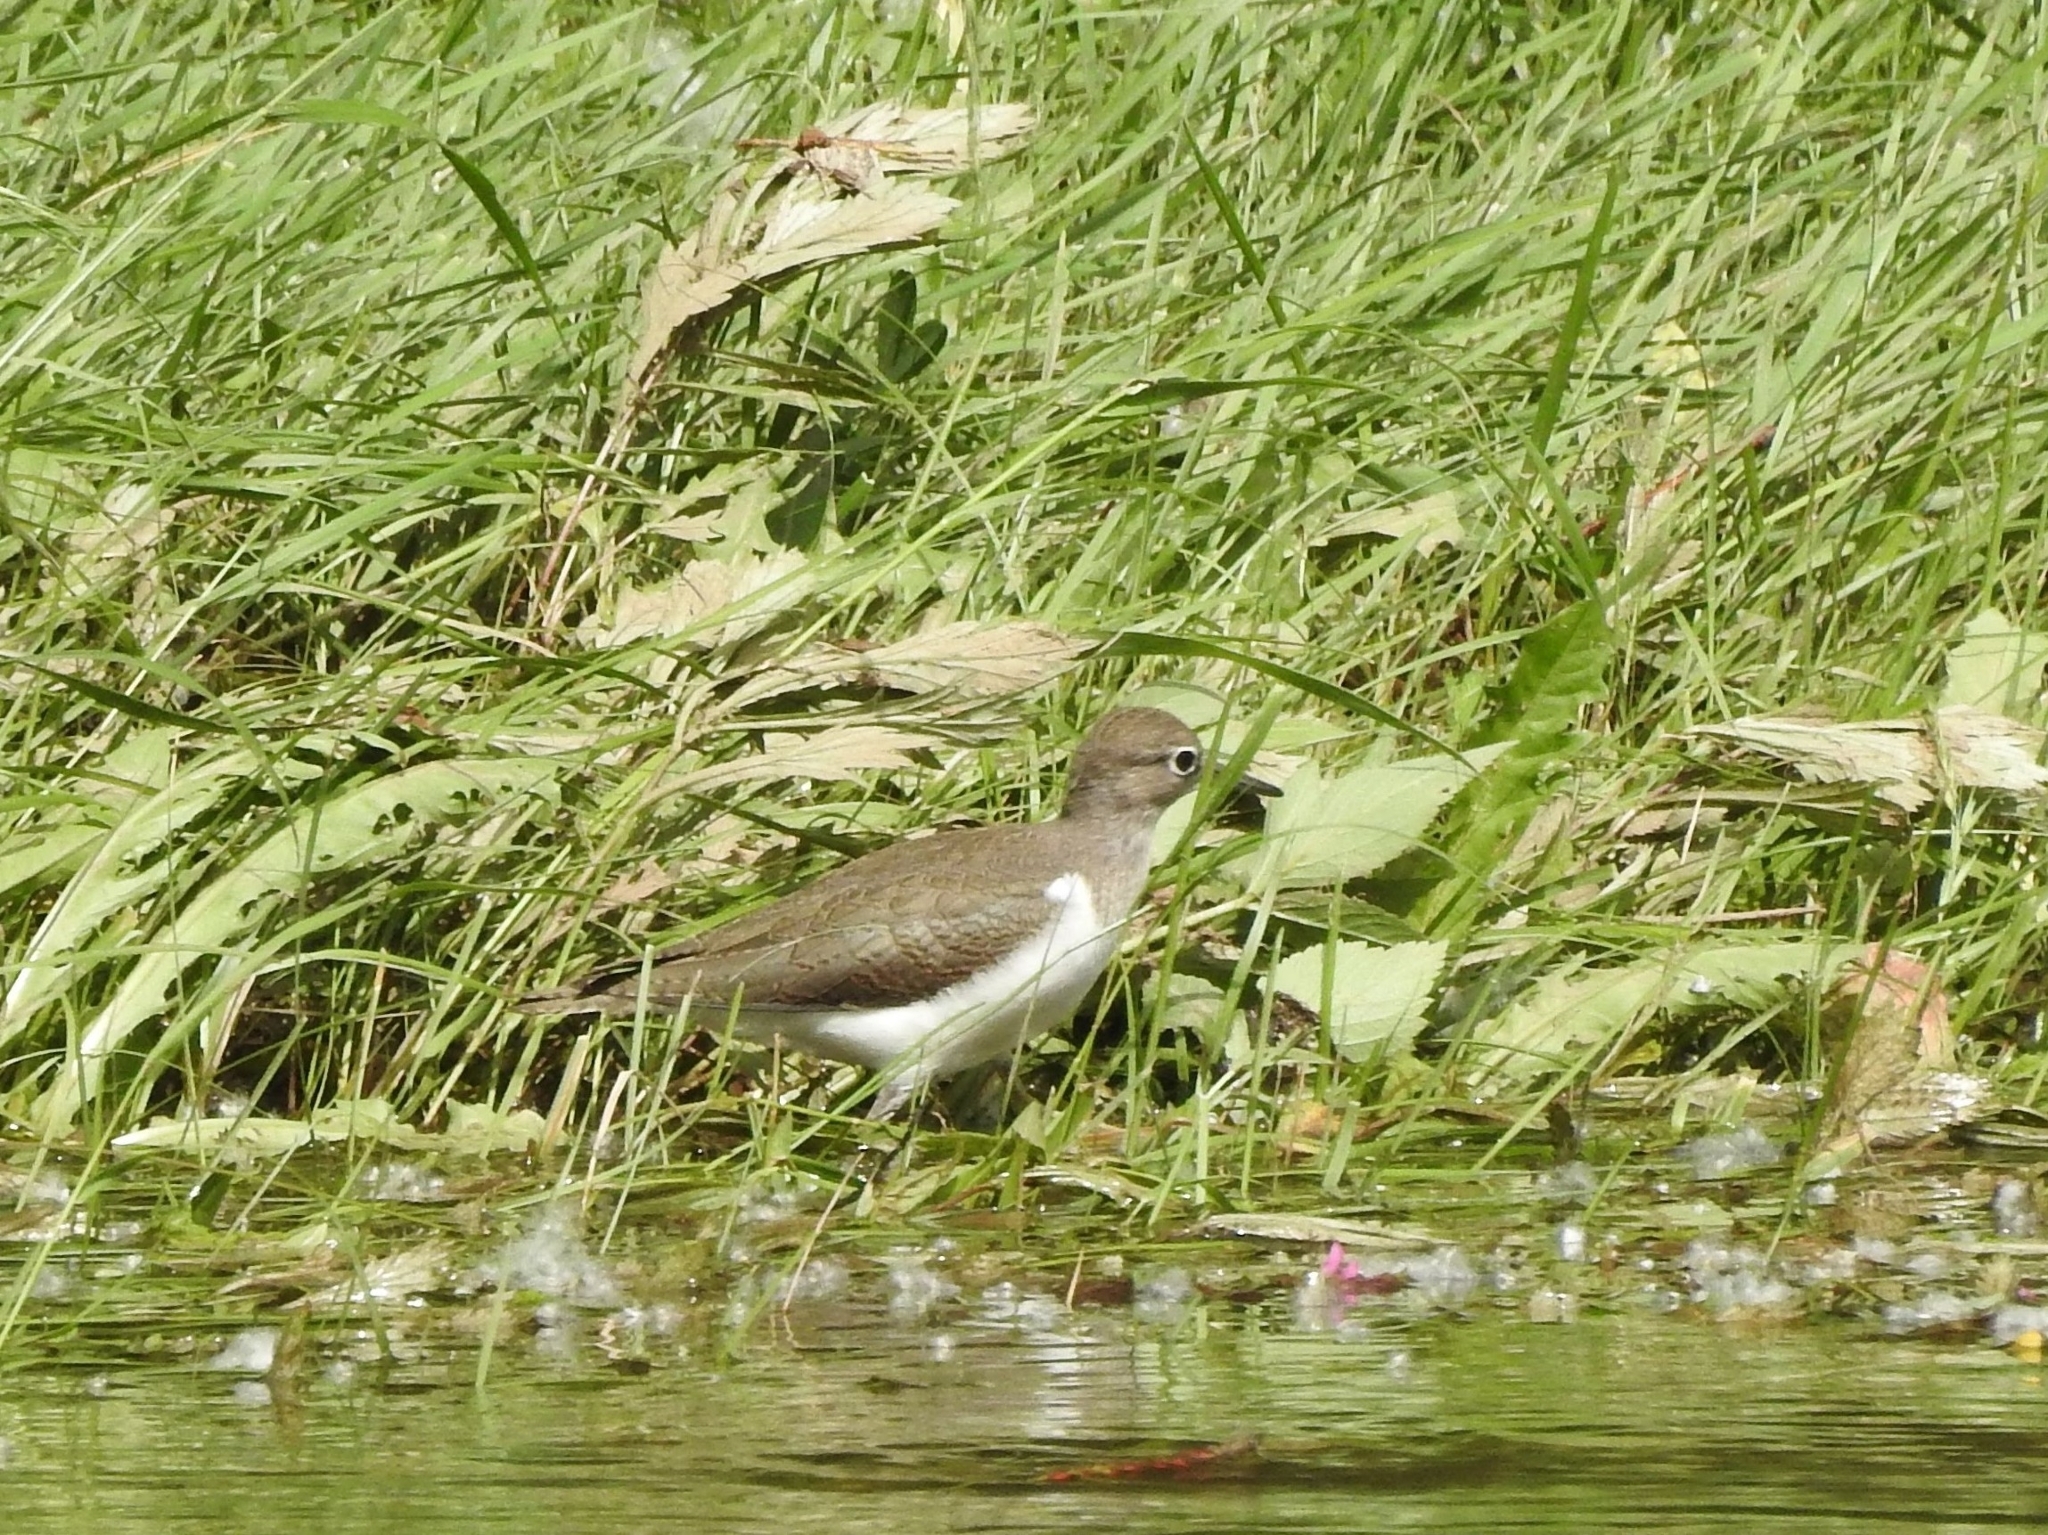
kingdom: Animalia
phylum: Chordata
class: Aves
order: Charadriiformes
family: Scolopacidae
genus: Actitis
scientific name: Actitis hypoleucos
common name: Common sandpiper
